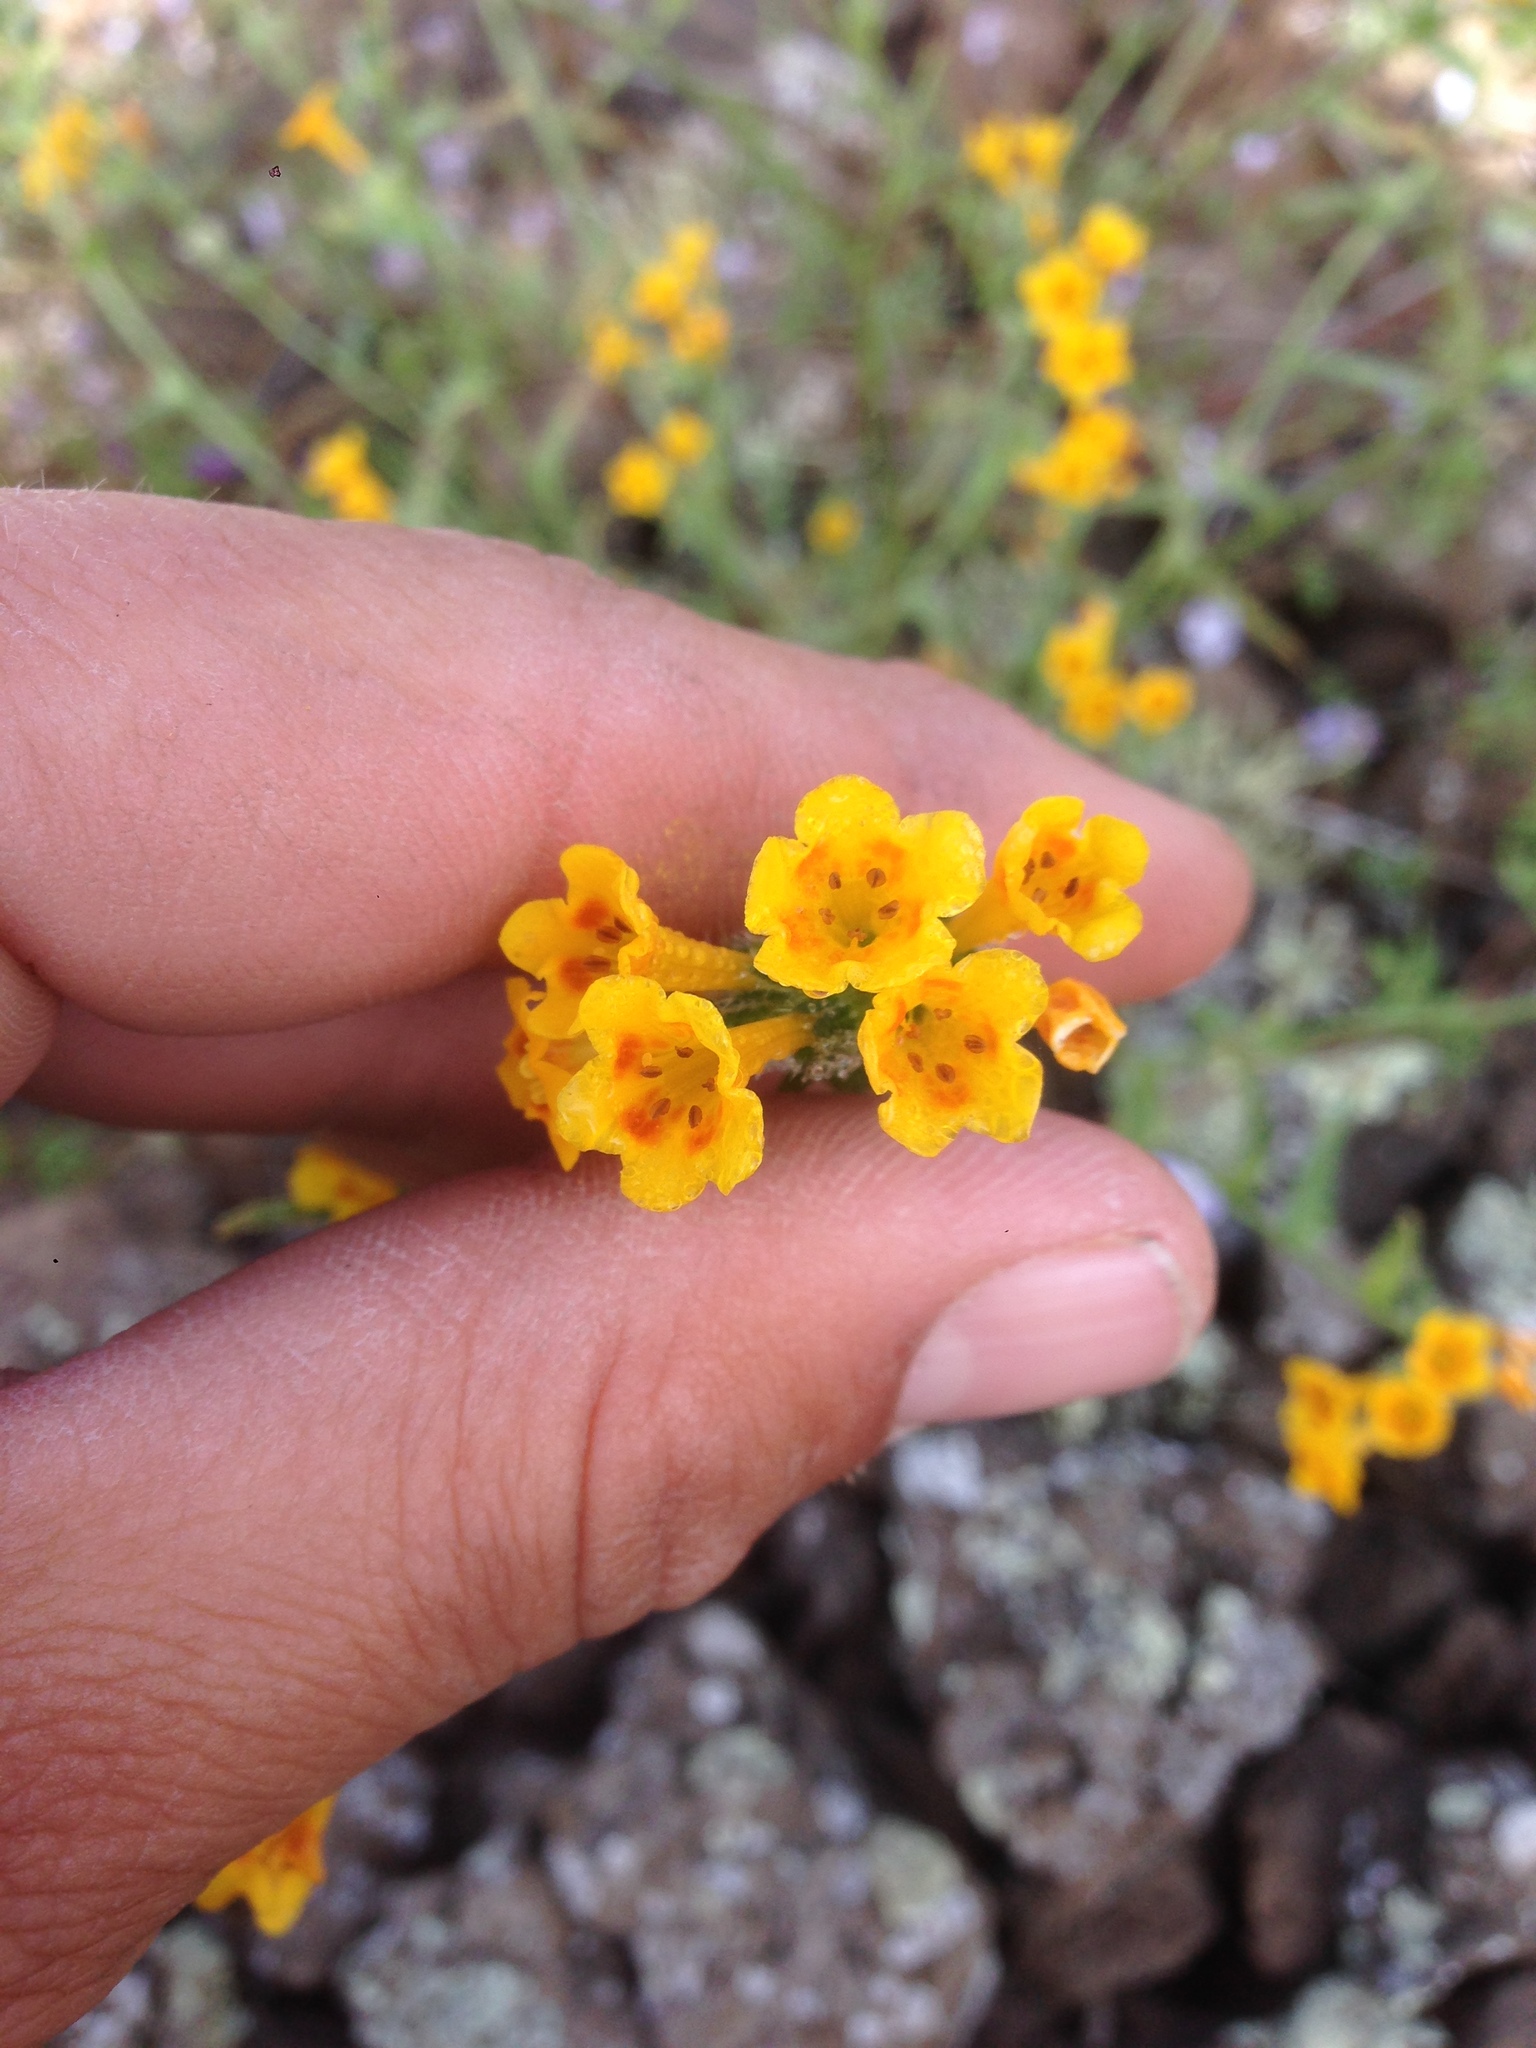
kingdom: Plantae
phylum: Tracheophyta
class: Magnoliopsida
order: Boraginales
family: Boraginaceae
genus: Amsinckia
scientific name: Amsinckia inepta
